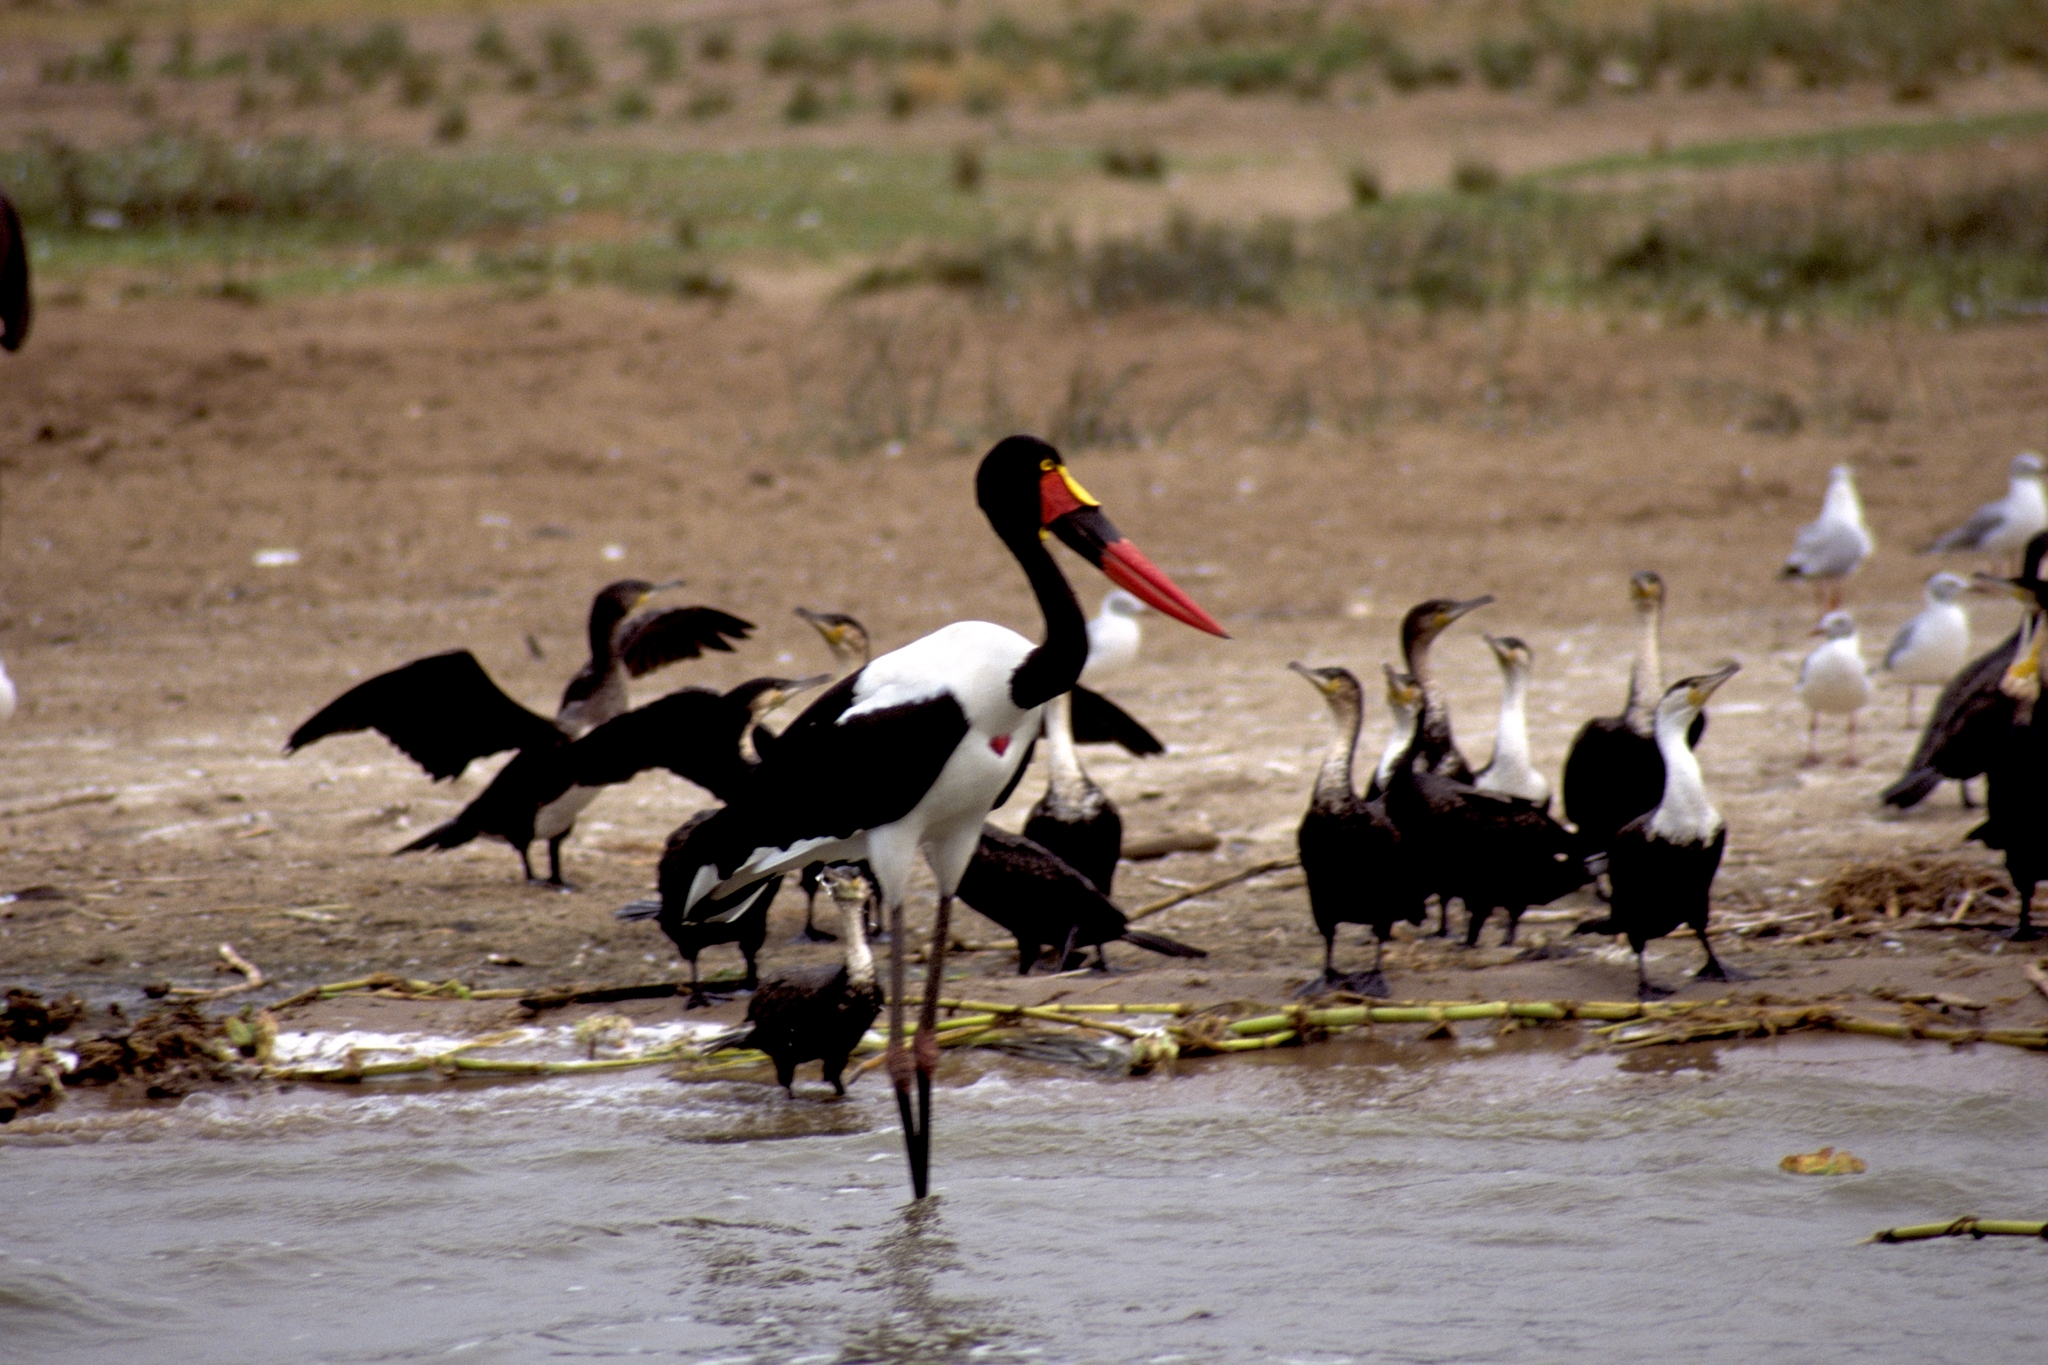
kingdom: Animalia
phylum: Chordata
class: Aves
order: Ciconiiformes
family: Ciconiidae
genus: Ephippiorhynchus
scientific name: Ephippiorhynchus senegalensis
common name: Saddle-billed stork
